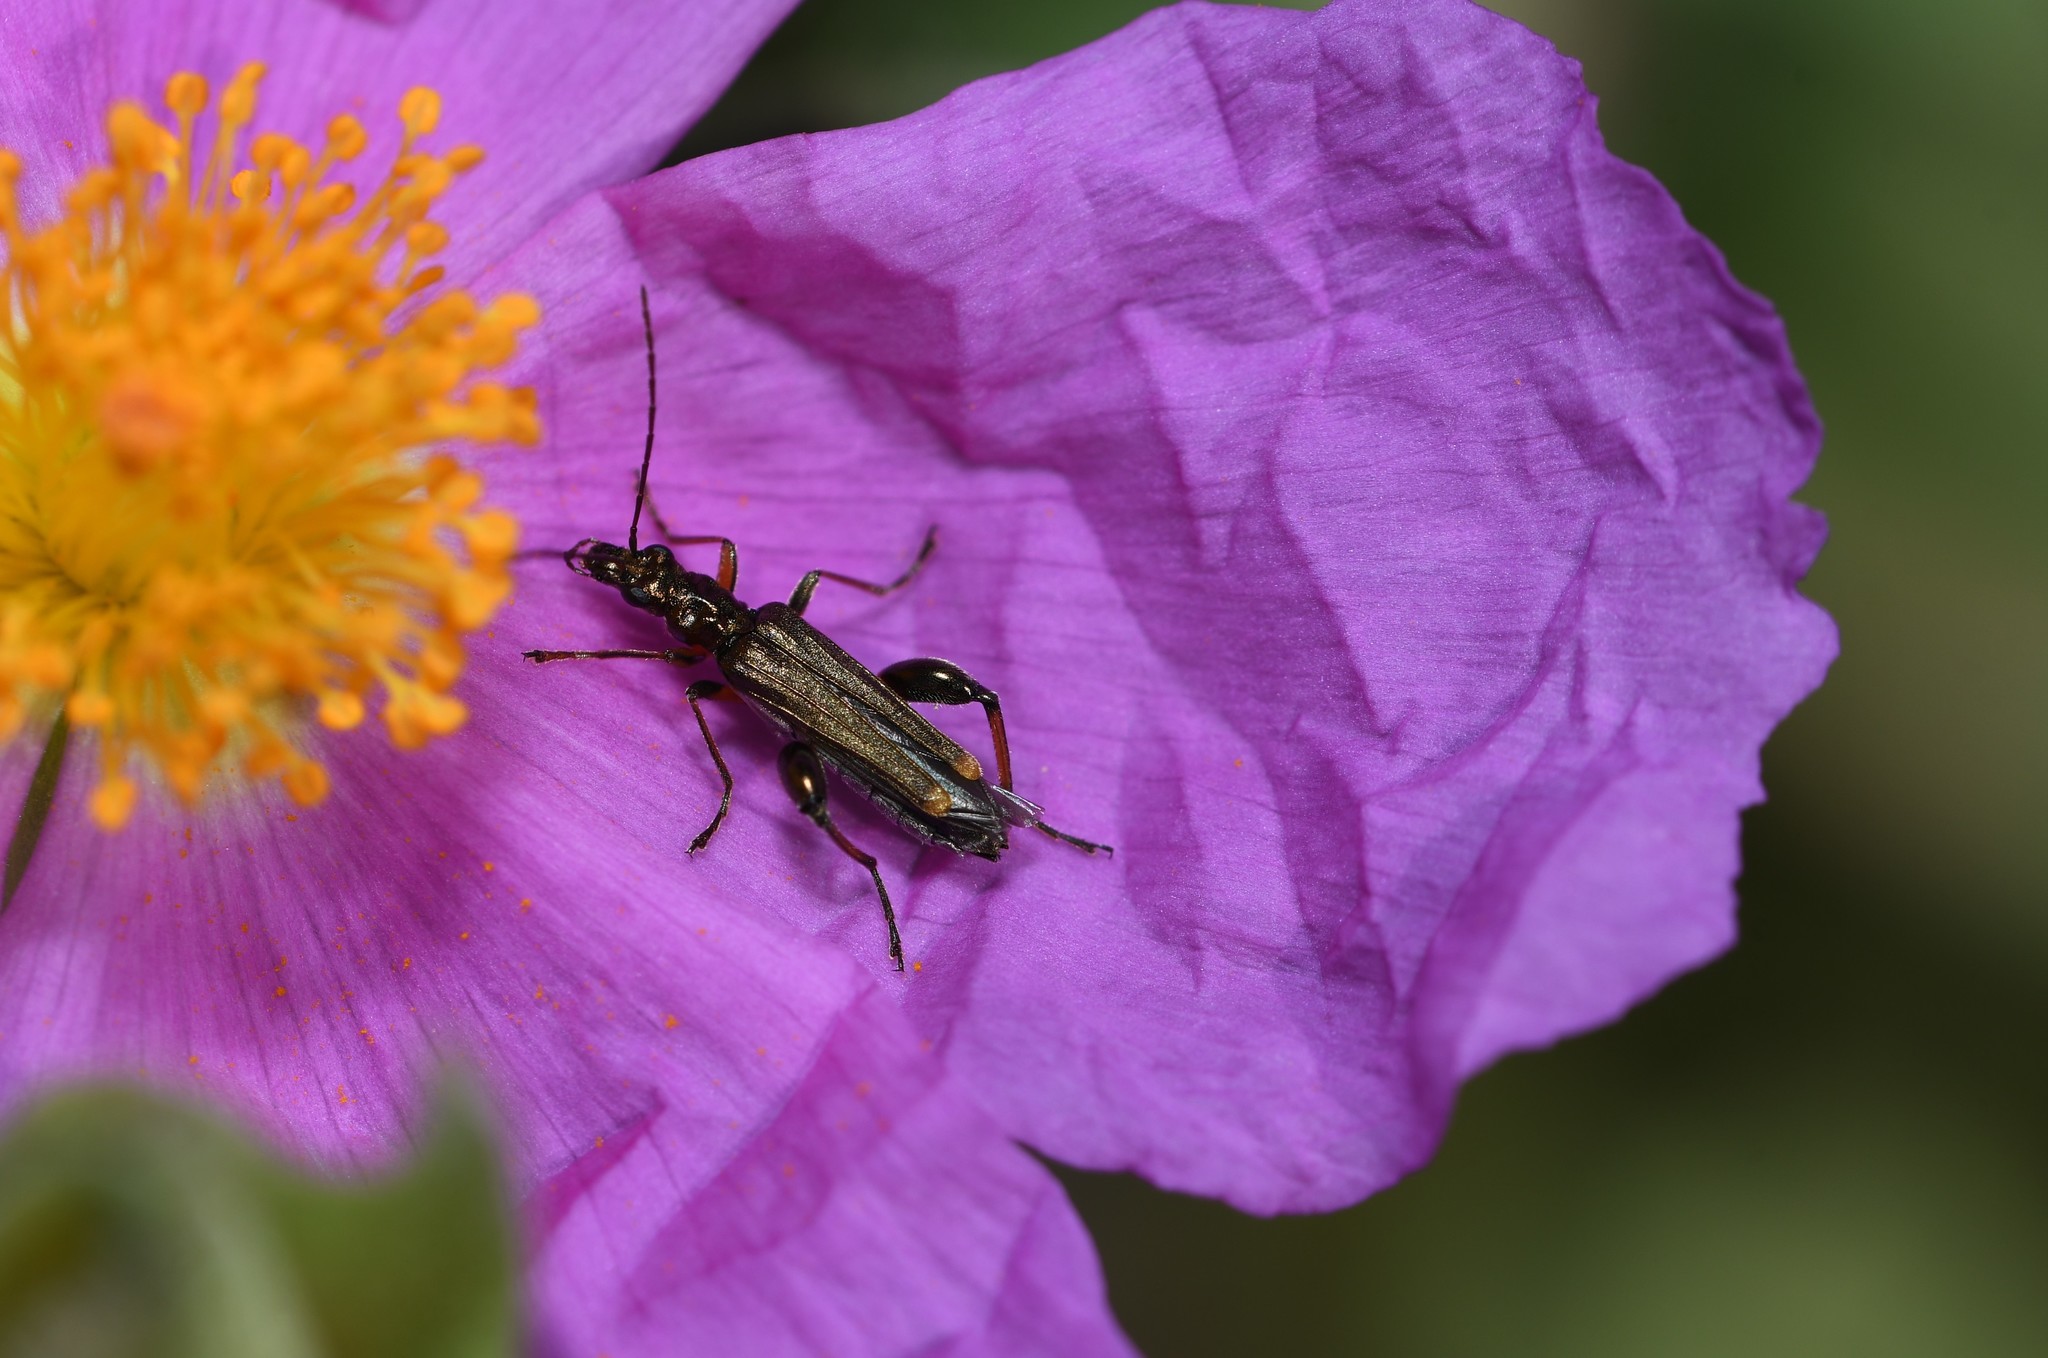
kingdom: Animalia
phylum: Arthropoda
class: Insecta
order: Coleoptera
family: Oedemeridae
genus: Oedemera
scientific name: Oedemera barbara
